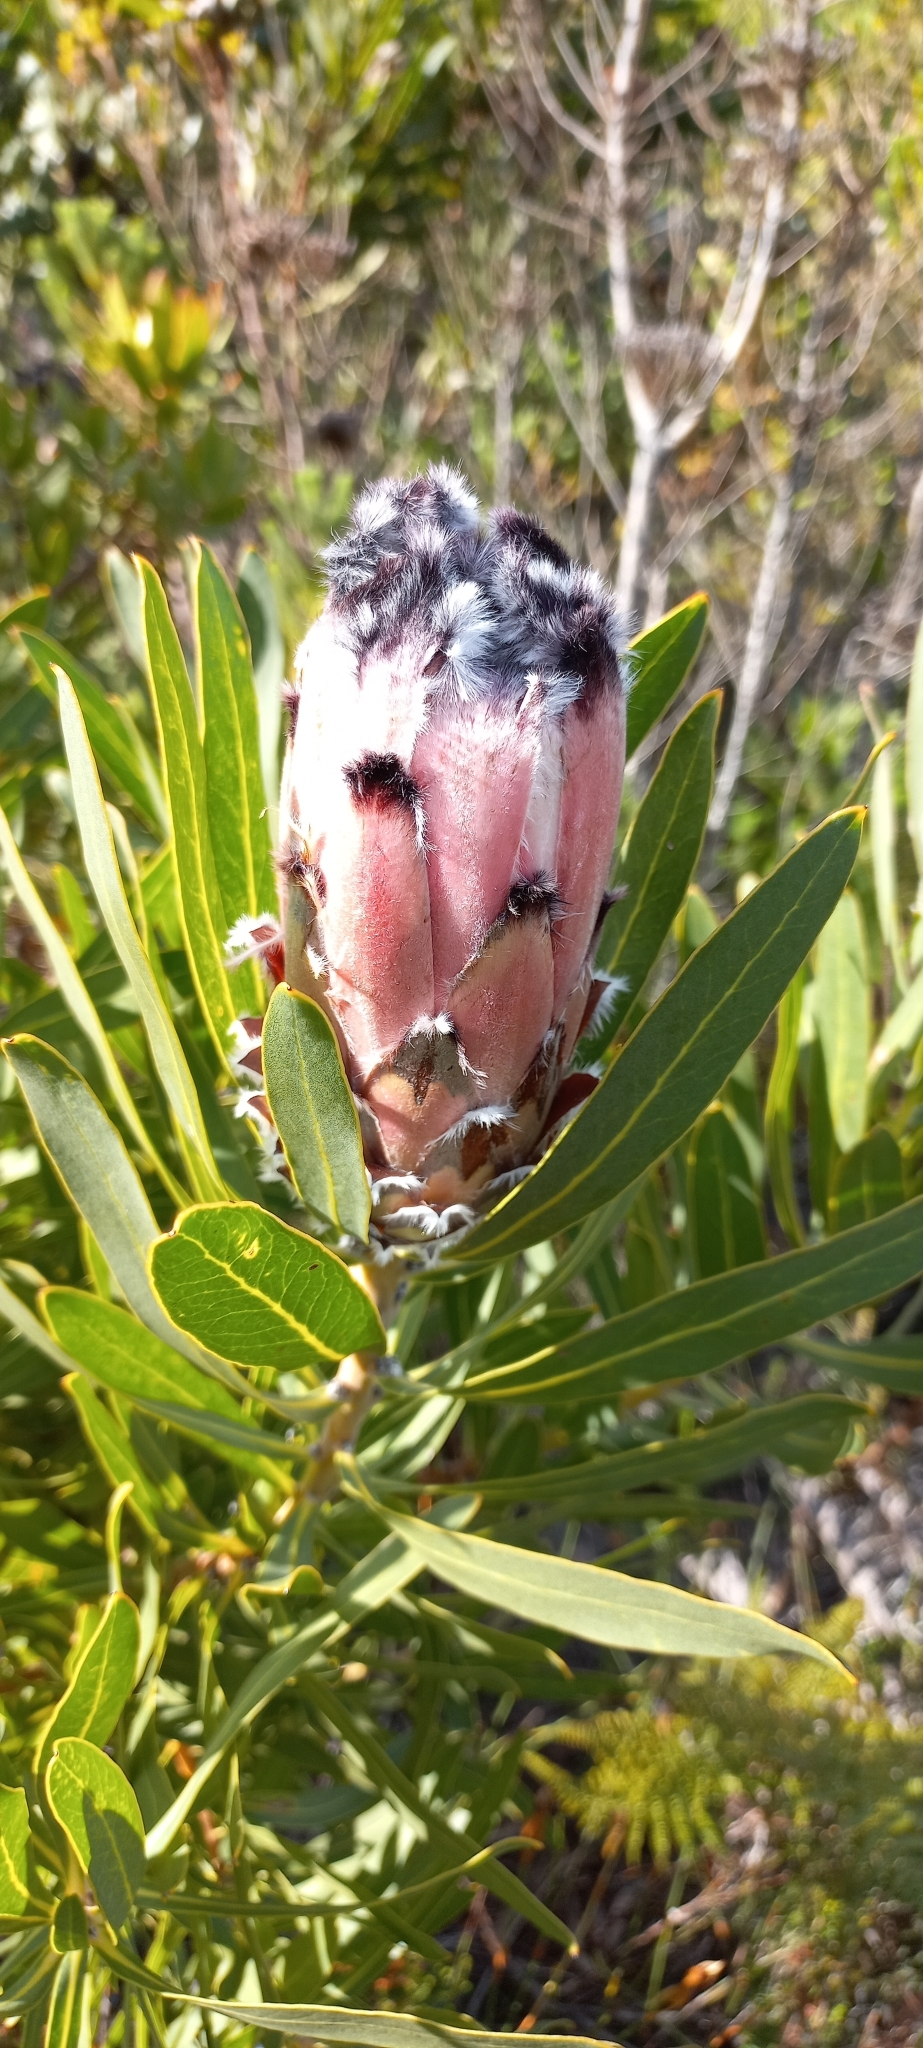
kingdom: Plantae
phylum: Tracheophyta
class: Magnoliopsida
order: Proteales
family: Proteaceae
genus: Protea
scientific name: Protea
